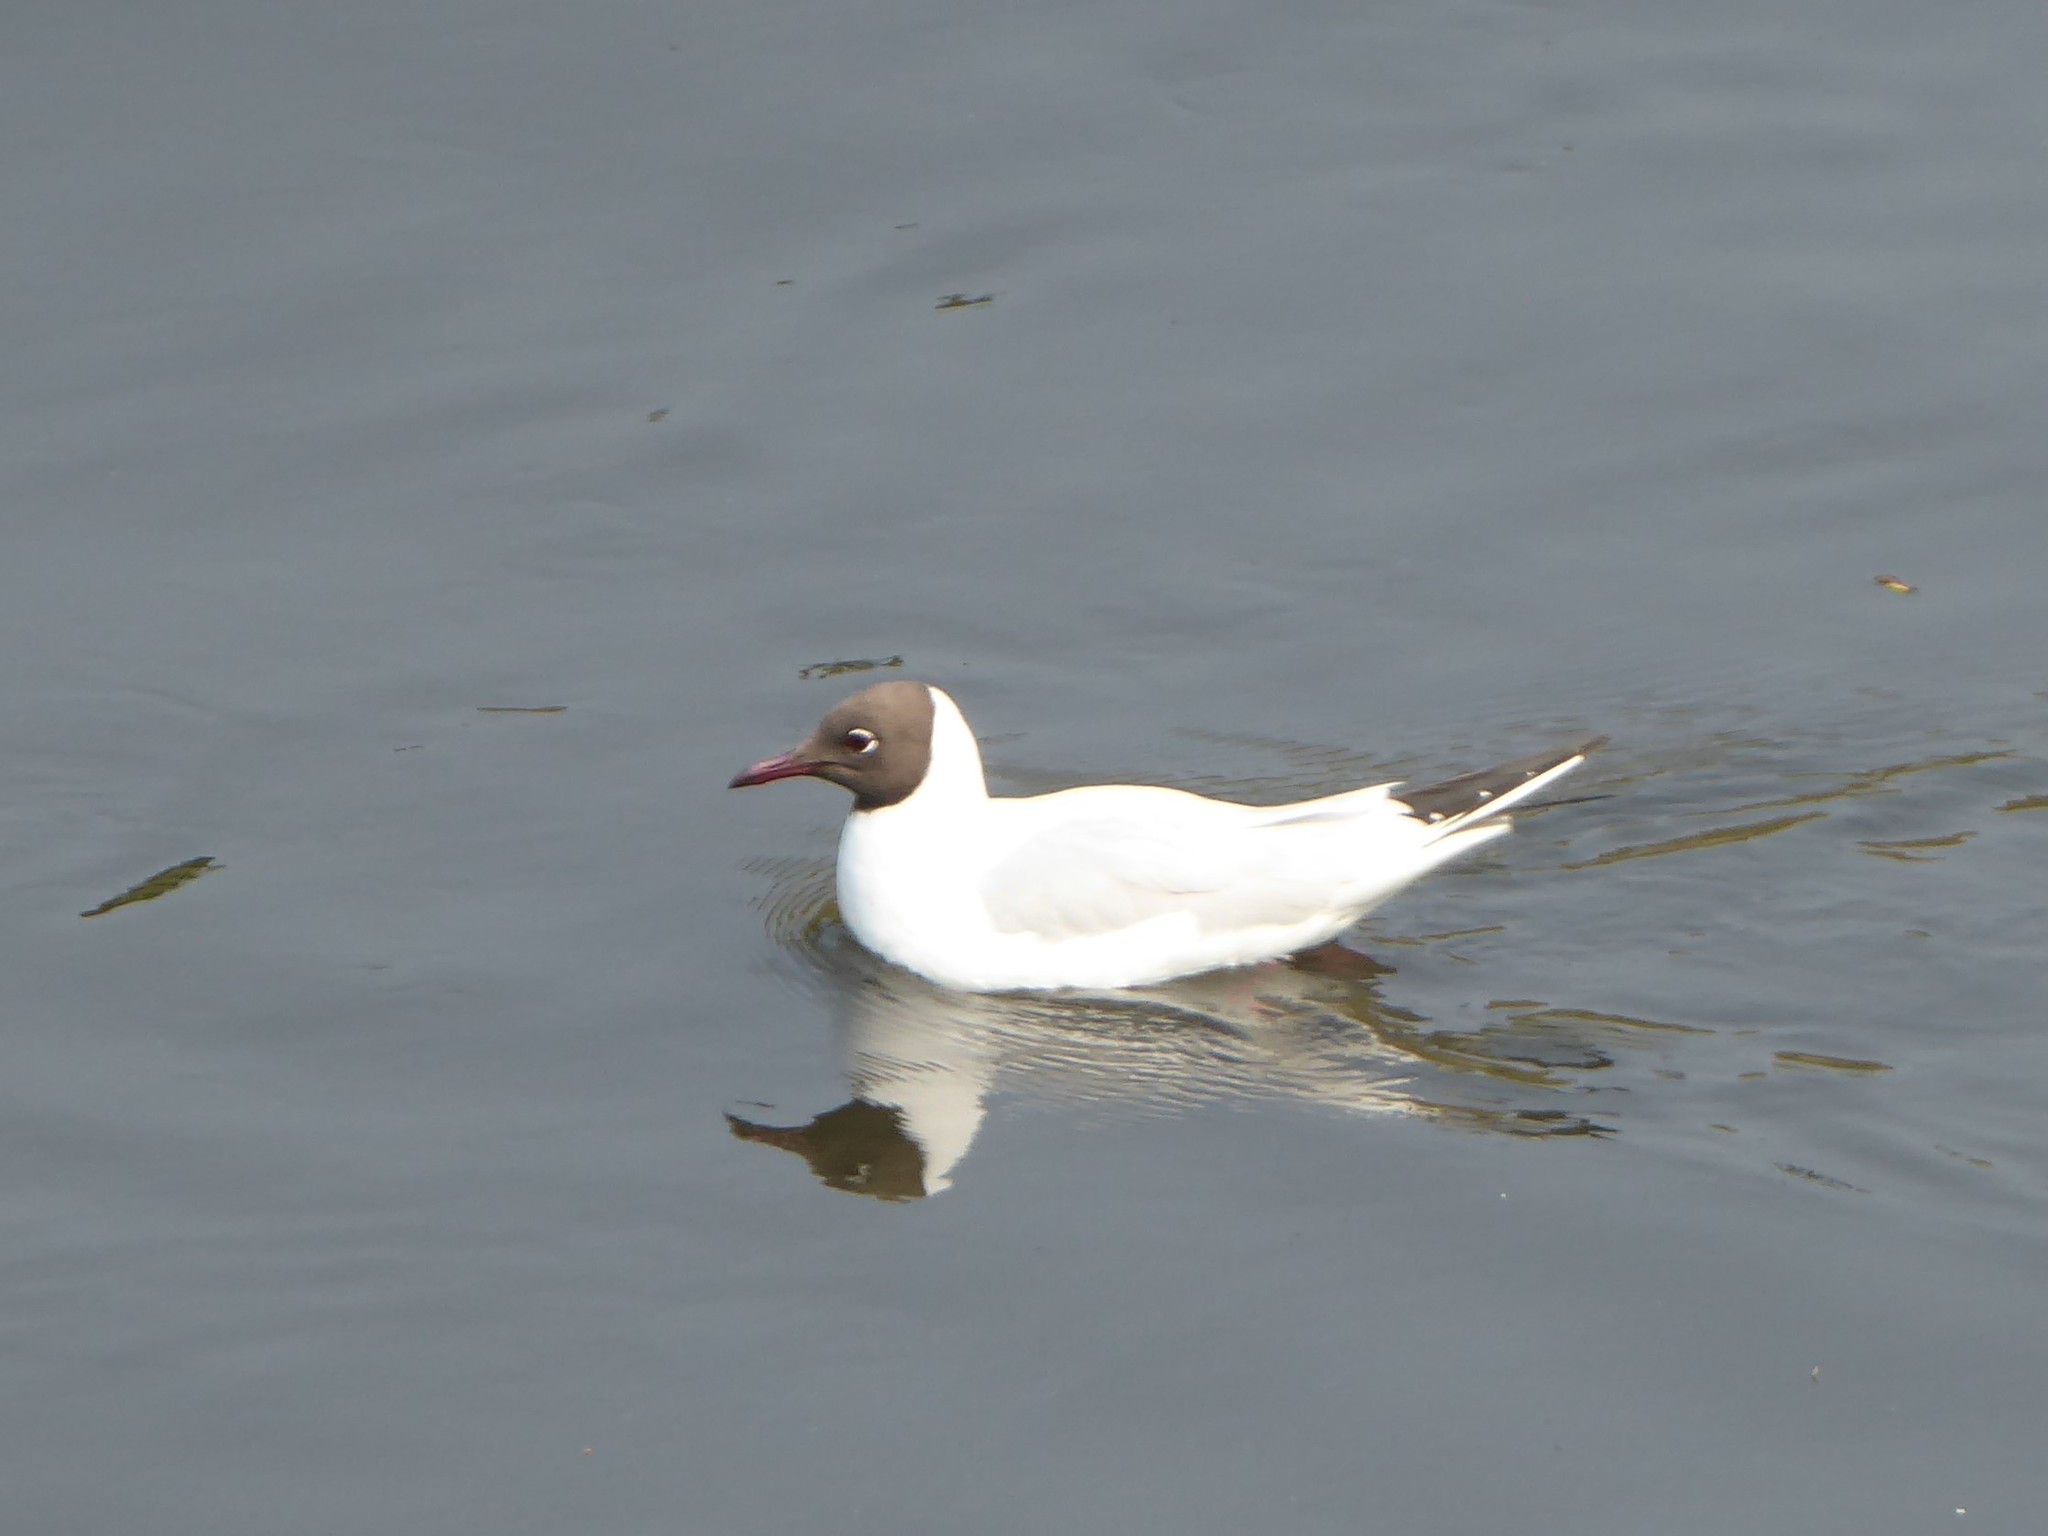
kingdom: Animalia
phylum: Chordata
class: Aves
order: Charadriiformes
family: Laridae
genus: Chroicocephalus
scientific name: Chroicocephalus ridibundus
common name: Black-headed gull
